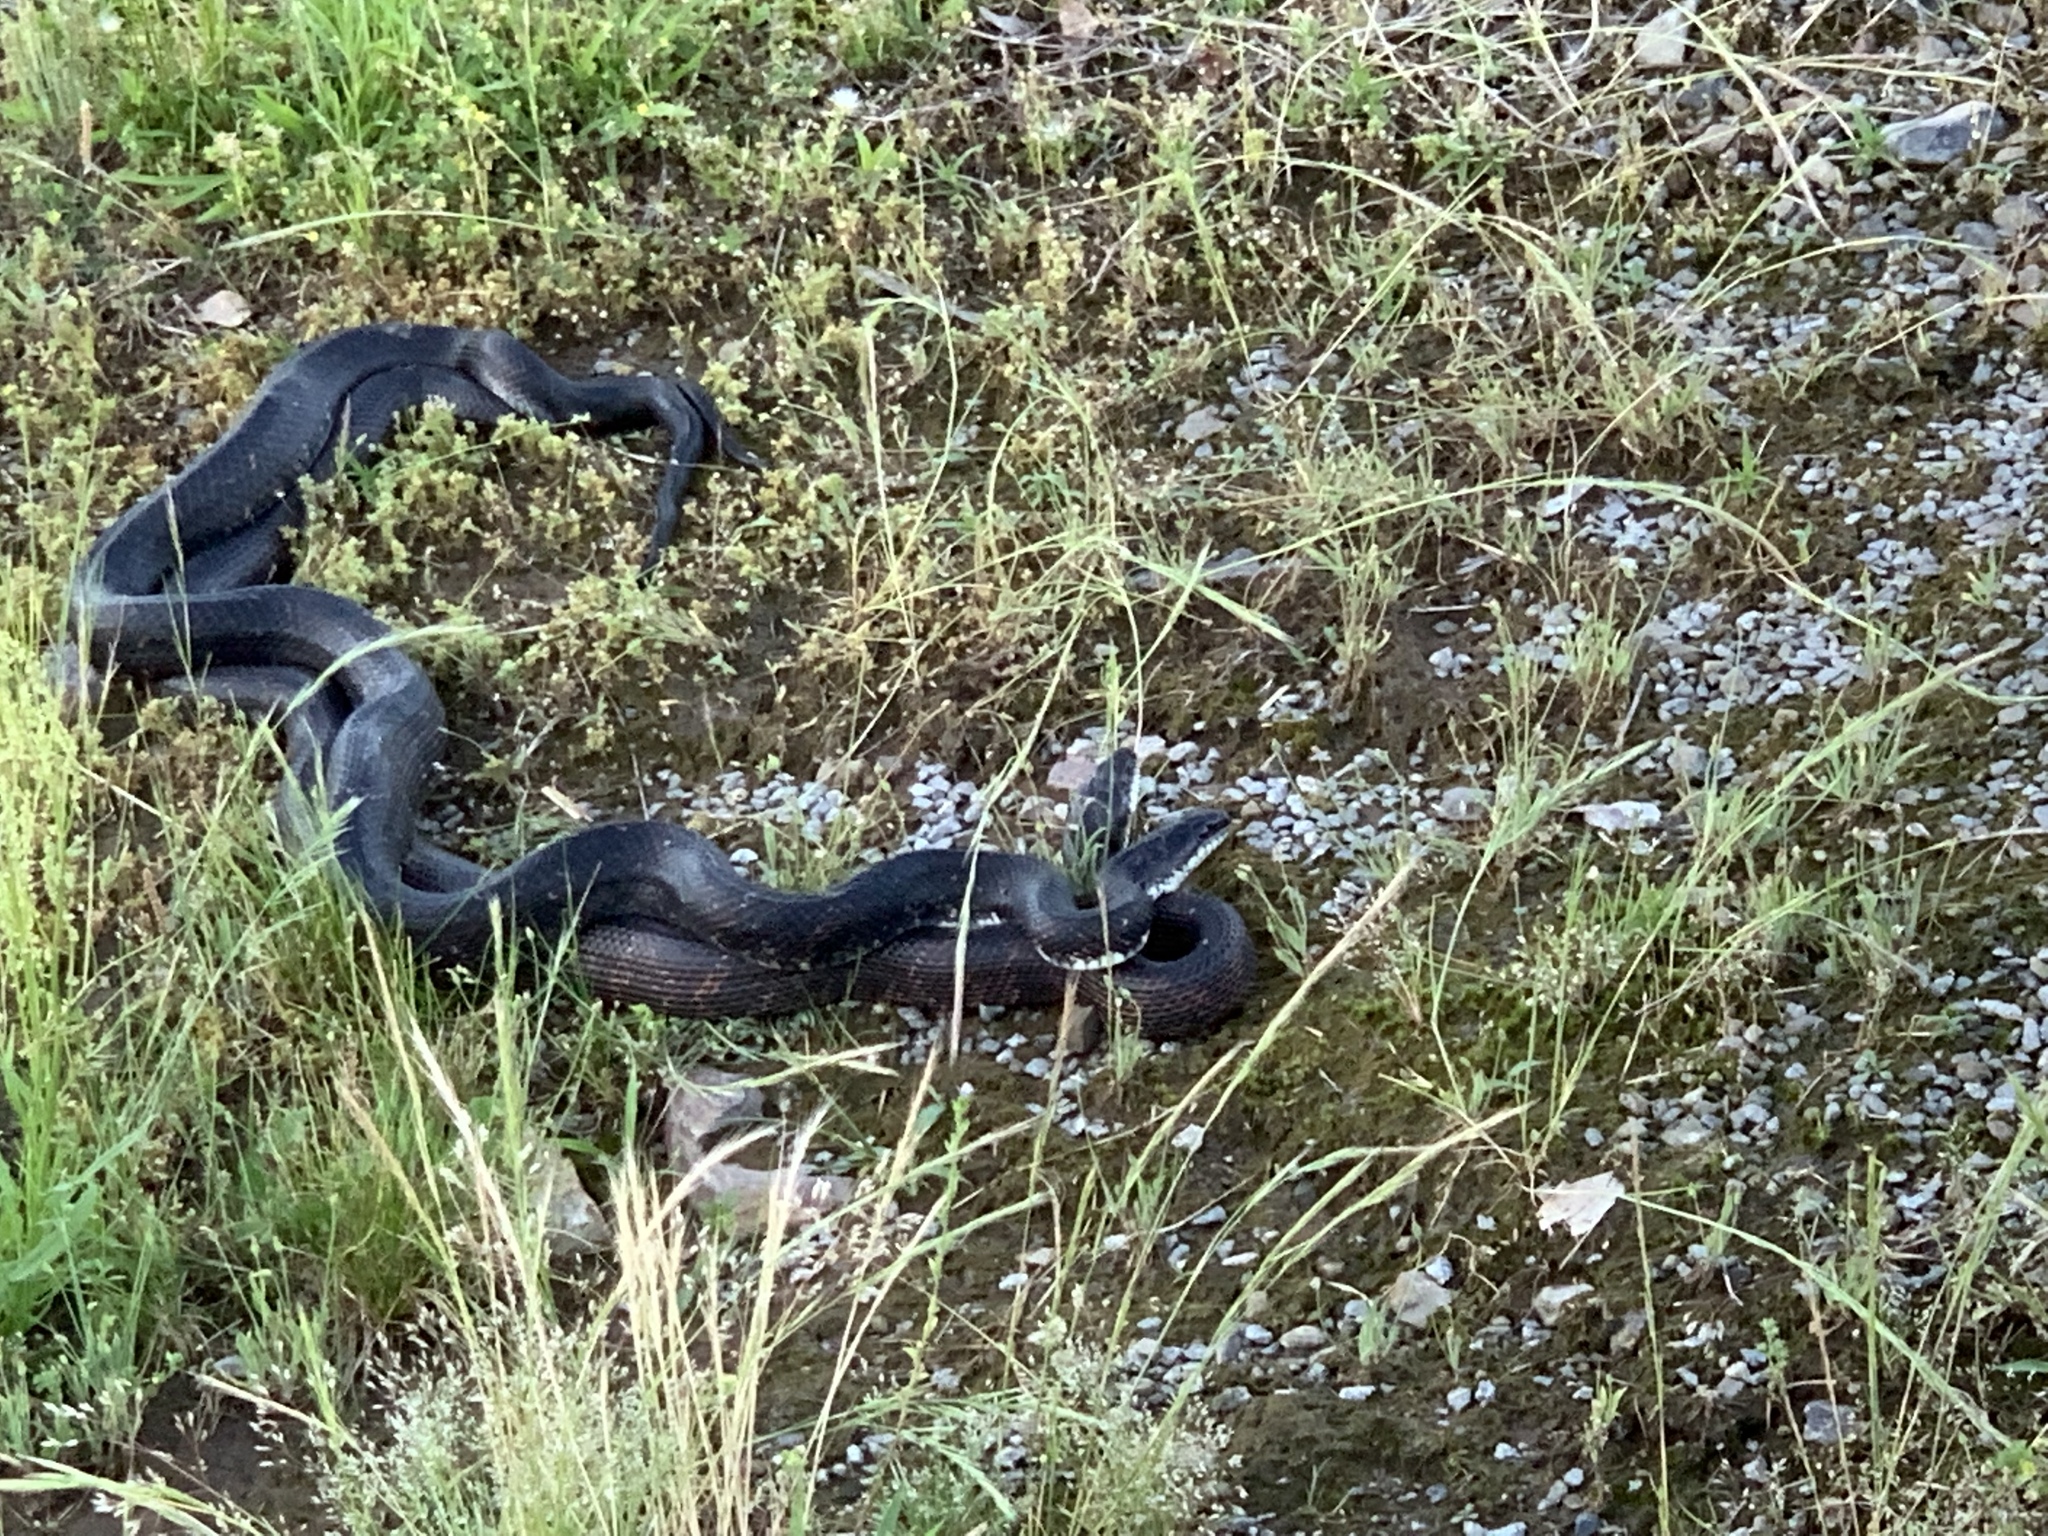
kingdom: Animalia
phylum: Chordata
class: Squamata
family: Colubridae
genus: Pantherophis
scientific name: Pantherophis obsoletus
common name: Black rat snake
